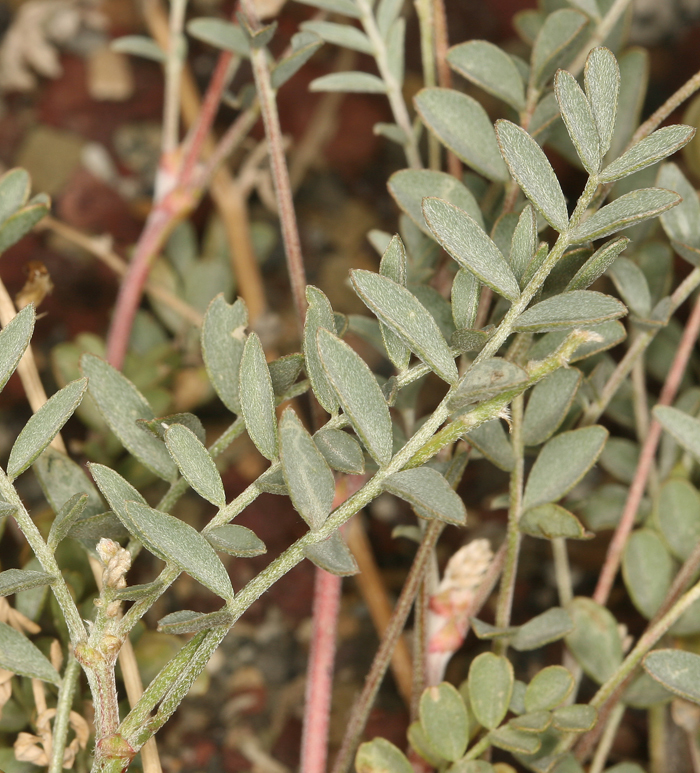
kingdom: Plantae
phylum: Tracheophyta
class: Magnoliopsida
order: Fabales
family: Fabaceae
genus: Astragalus
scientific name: Astragalus lentiginosus
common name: Freckled milkvetch
